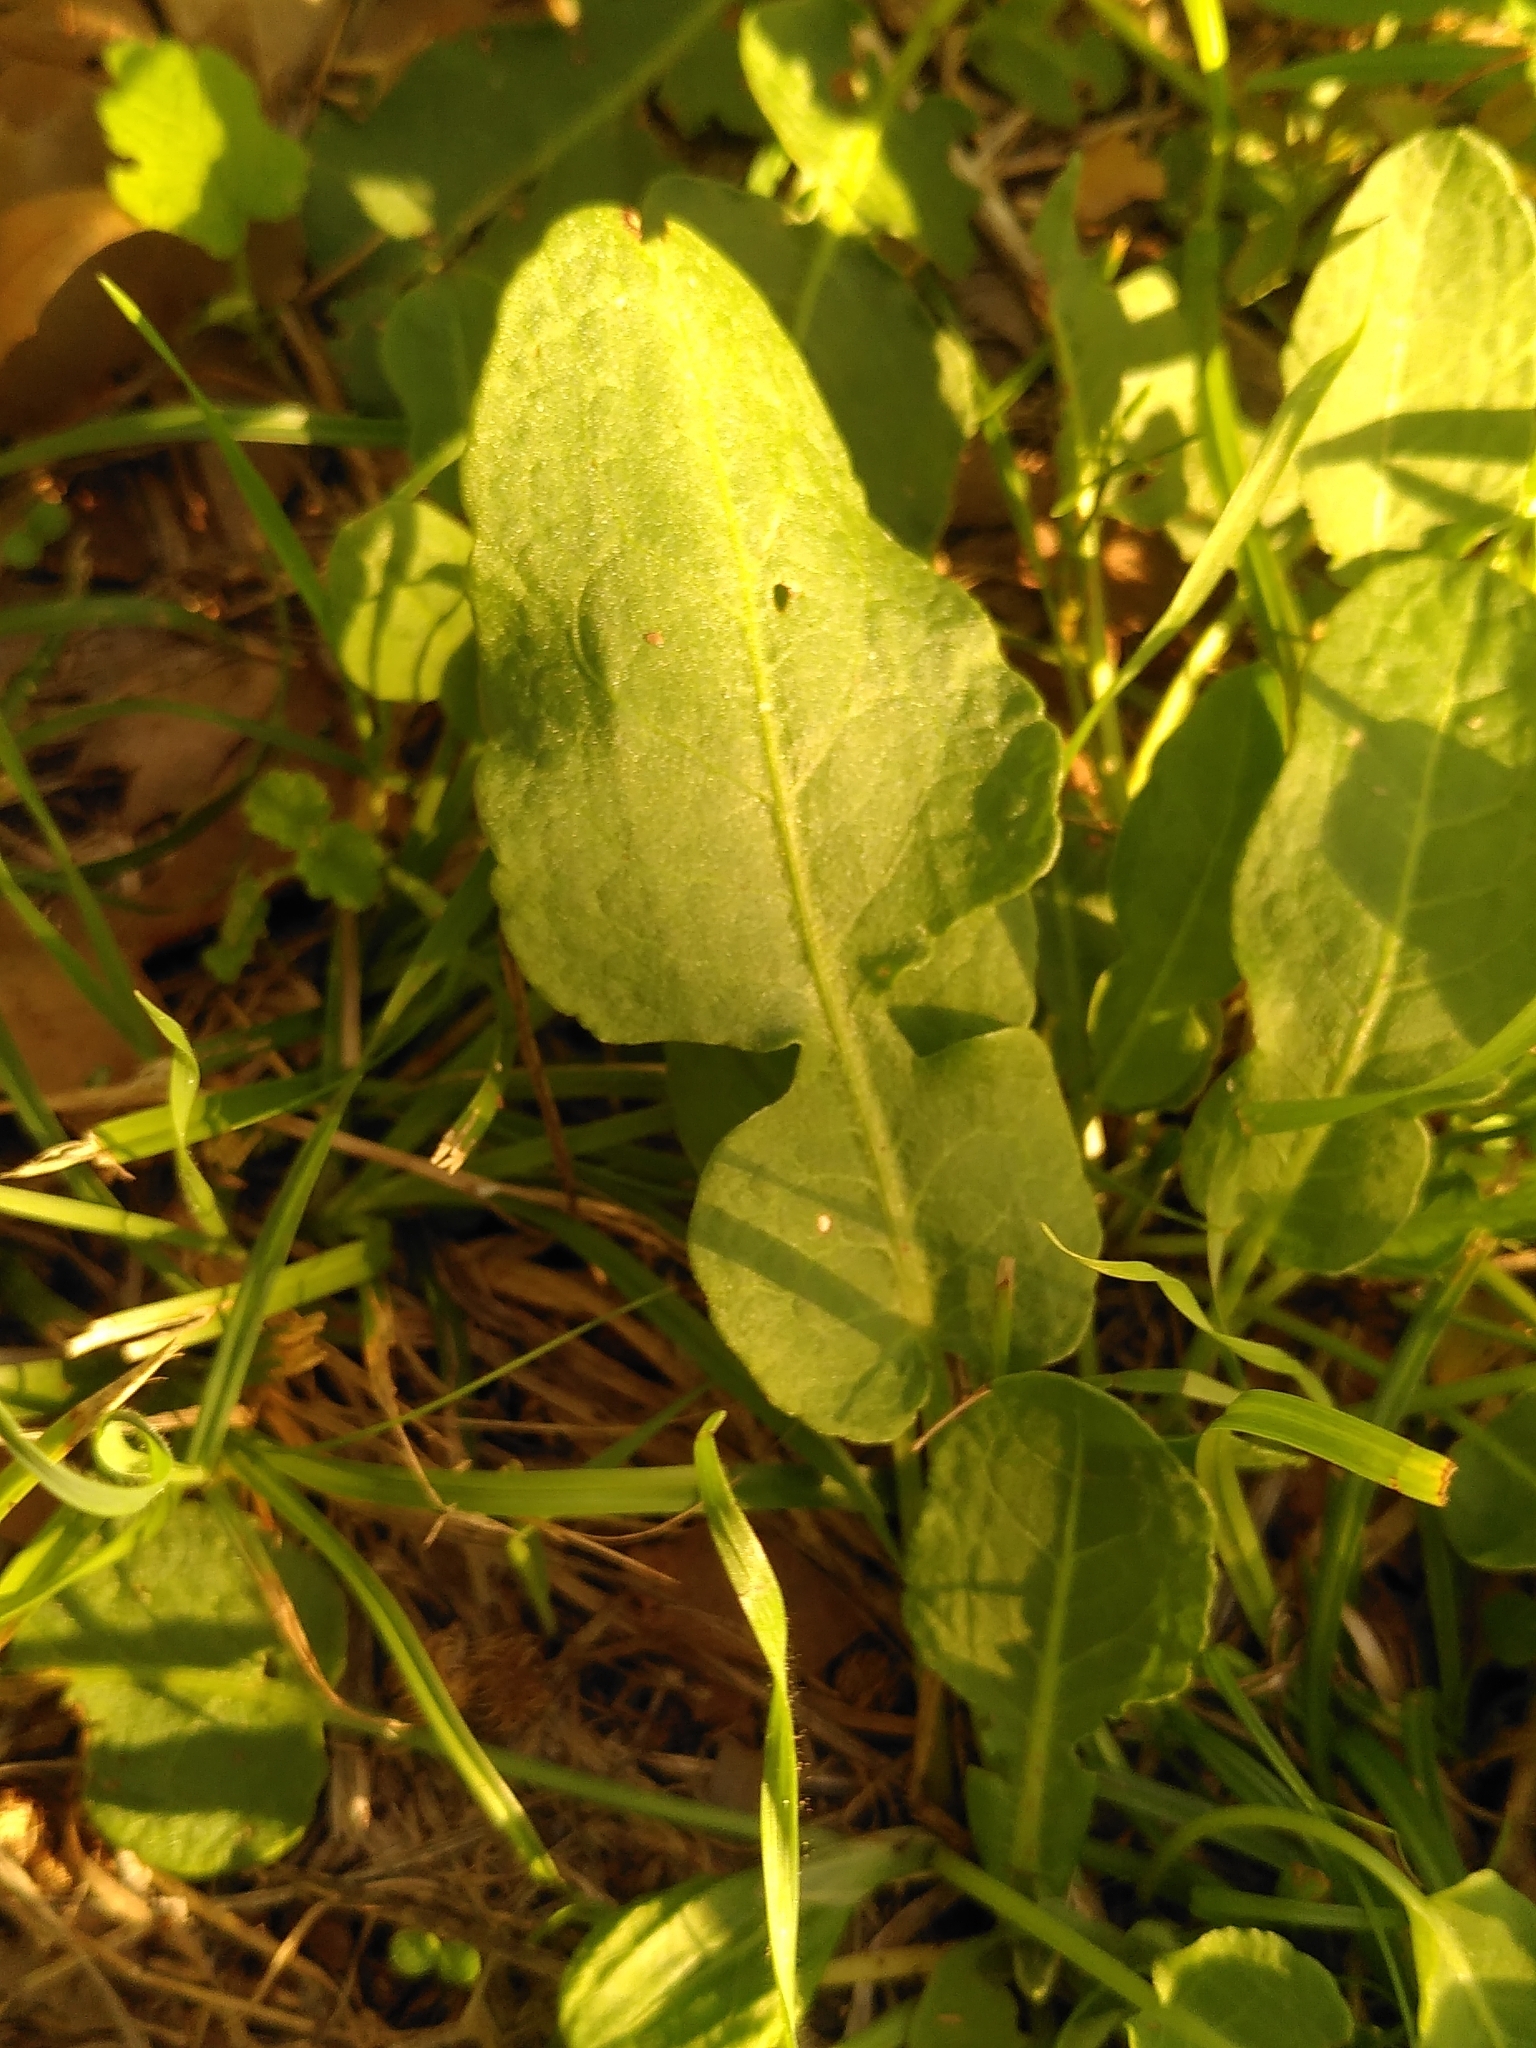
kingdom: Plantae
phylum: Tracheophyta
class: Magnoliopsida
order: Caryophyllales
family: Polygonaceae
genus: Rumex
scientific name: Rumex pulcher
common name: Fiddle dock
